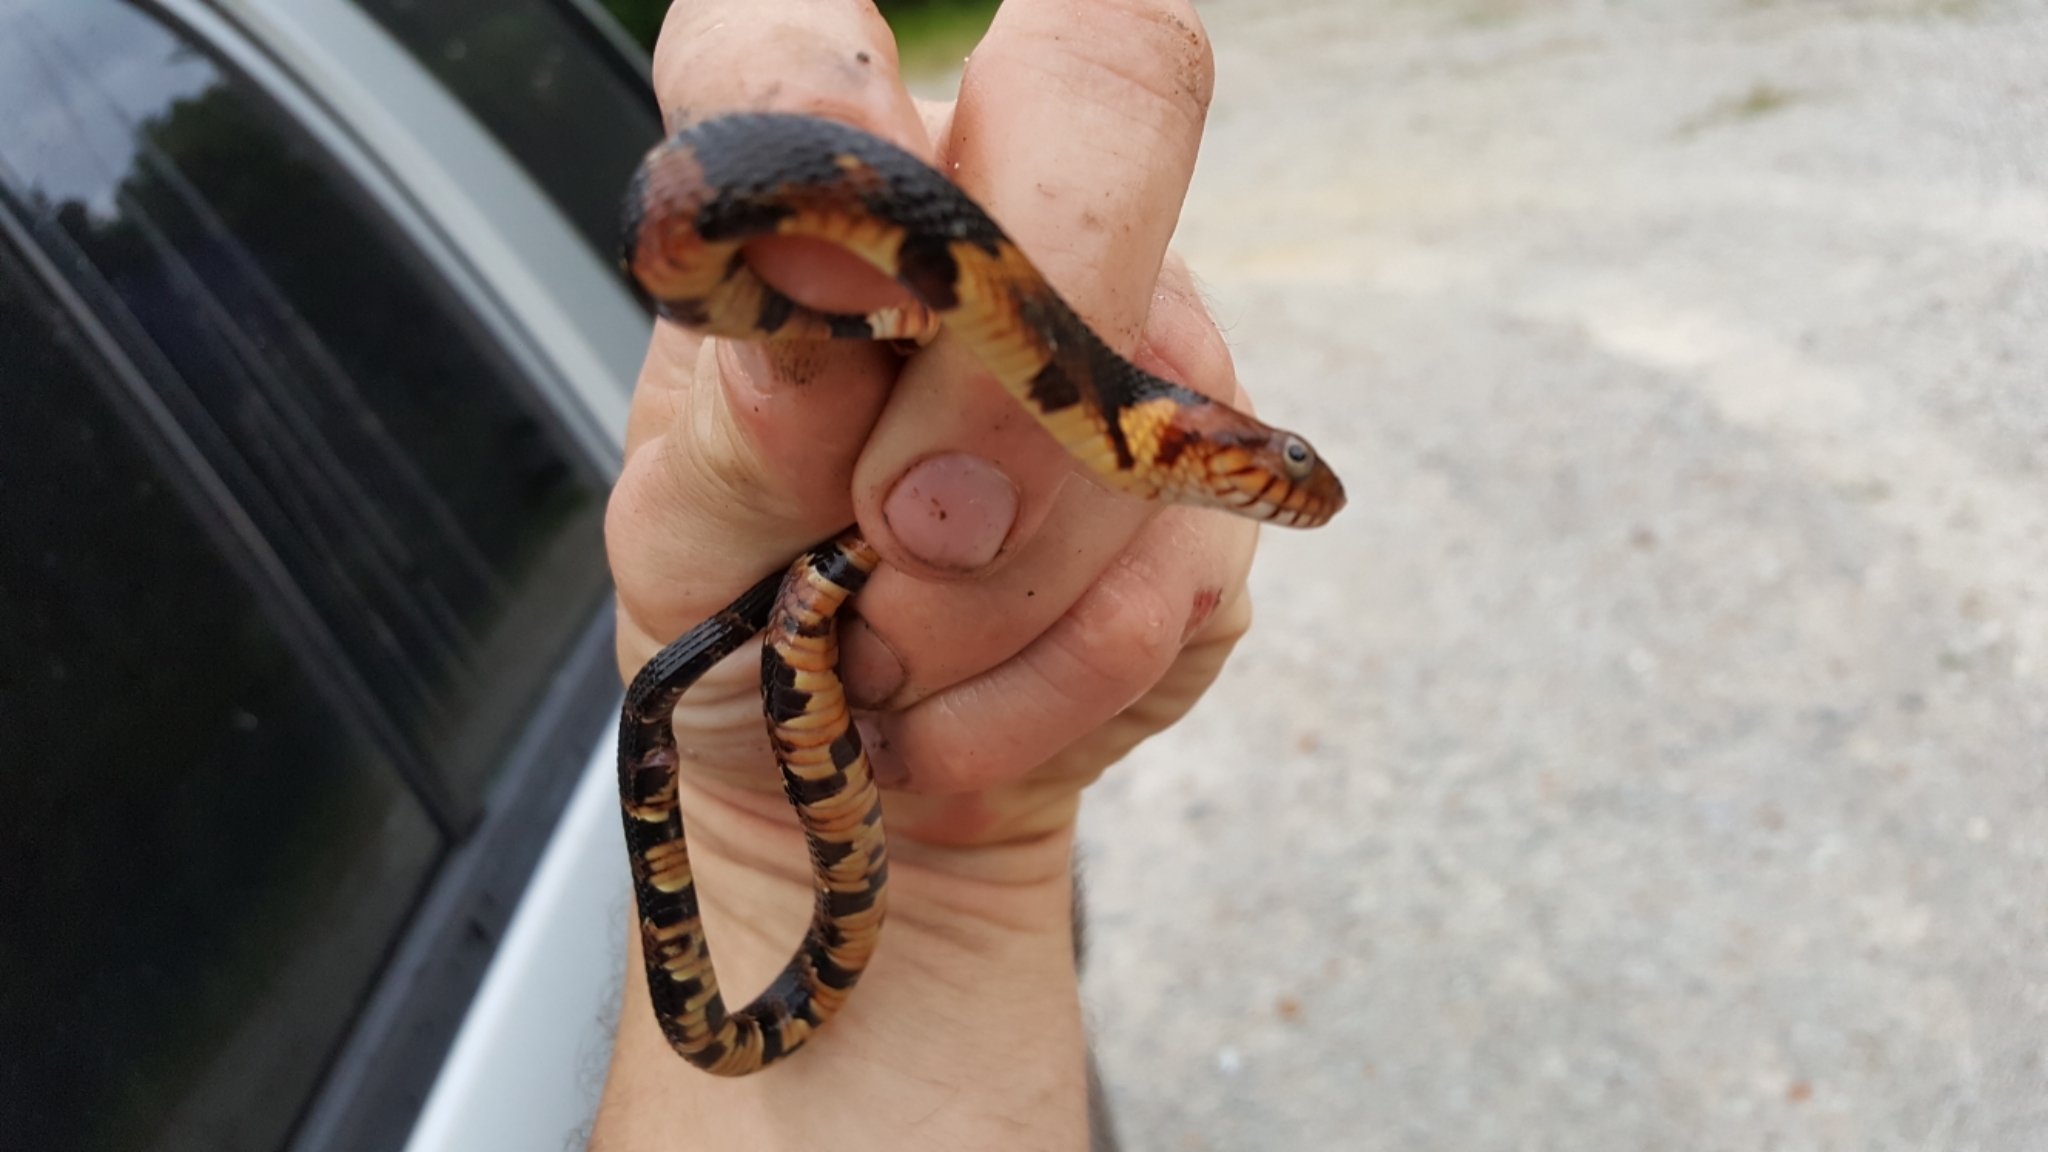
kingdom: Animalia
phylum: Chordata
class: Squamata
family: Colubridae
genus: Nerodia
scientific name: Nerodia fasciata
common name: Southern water snake
